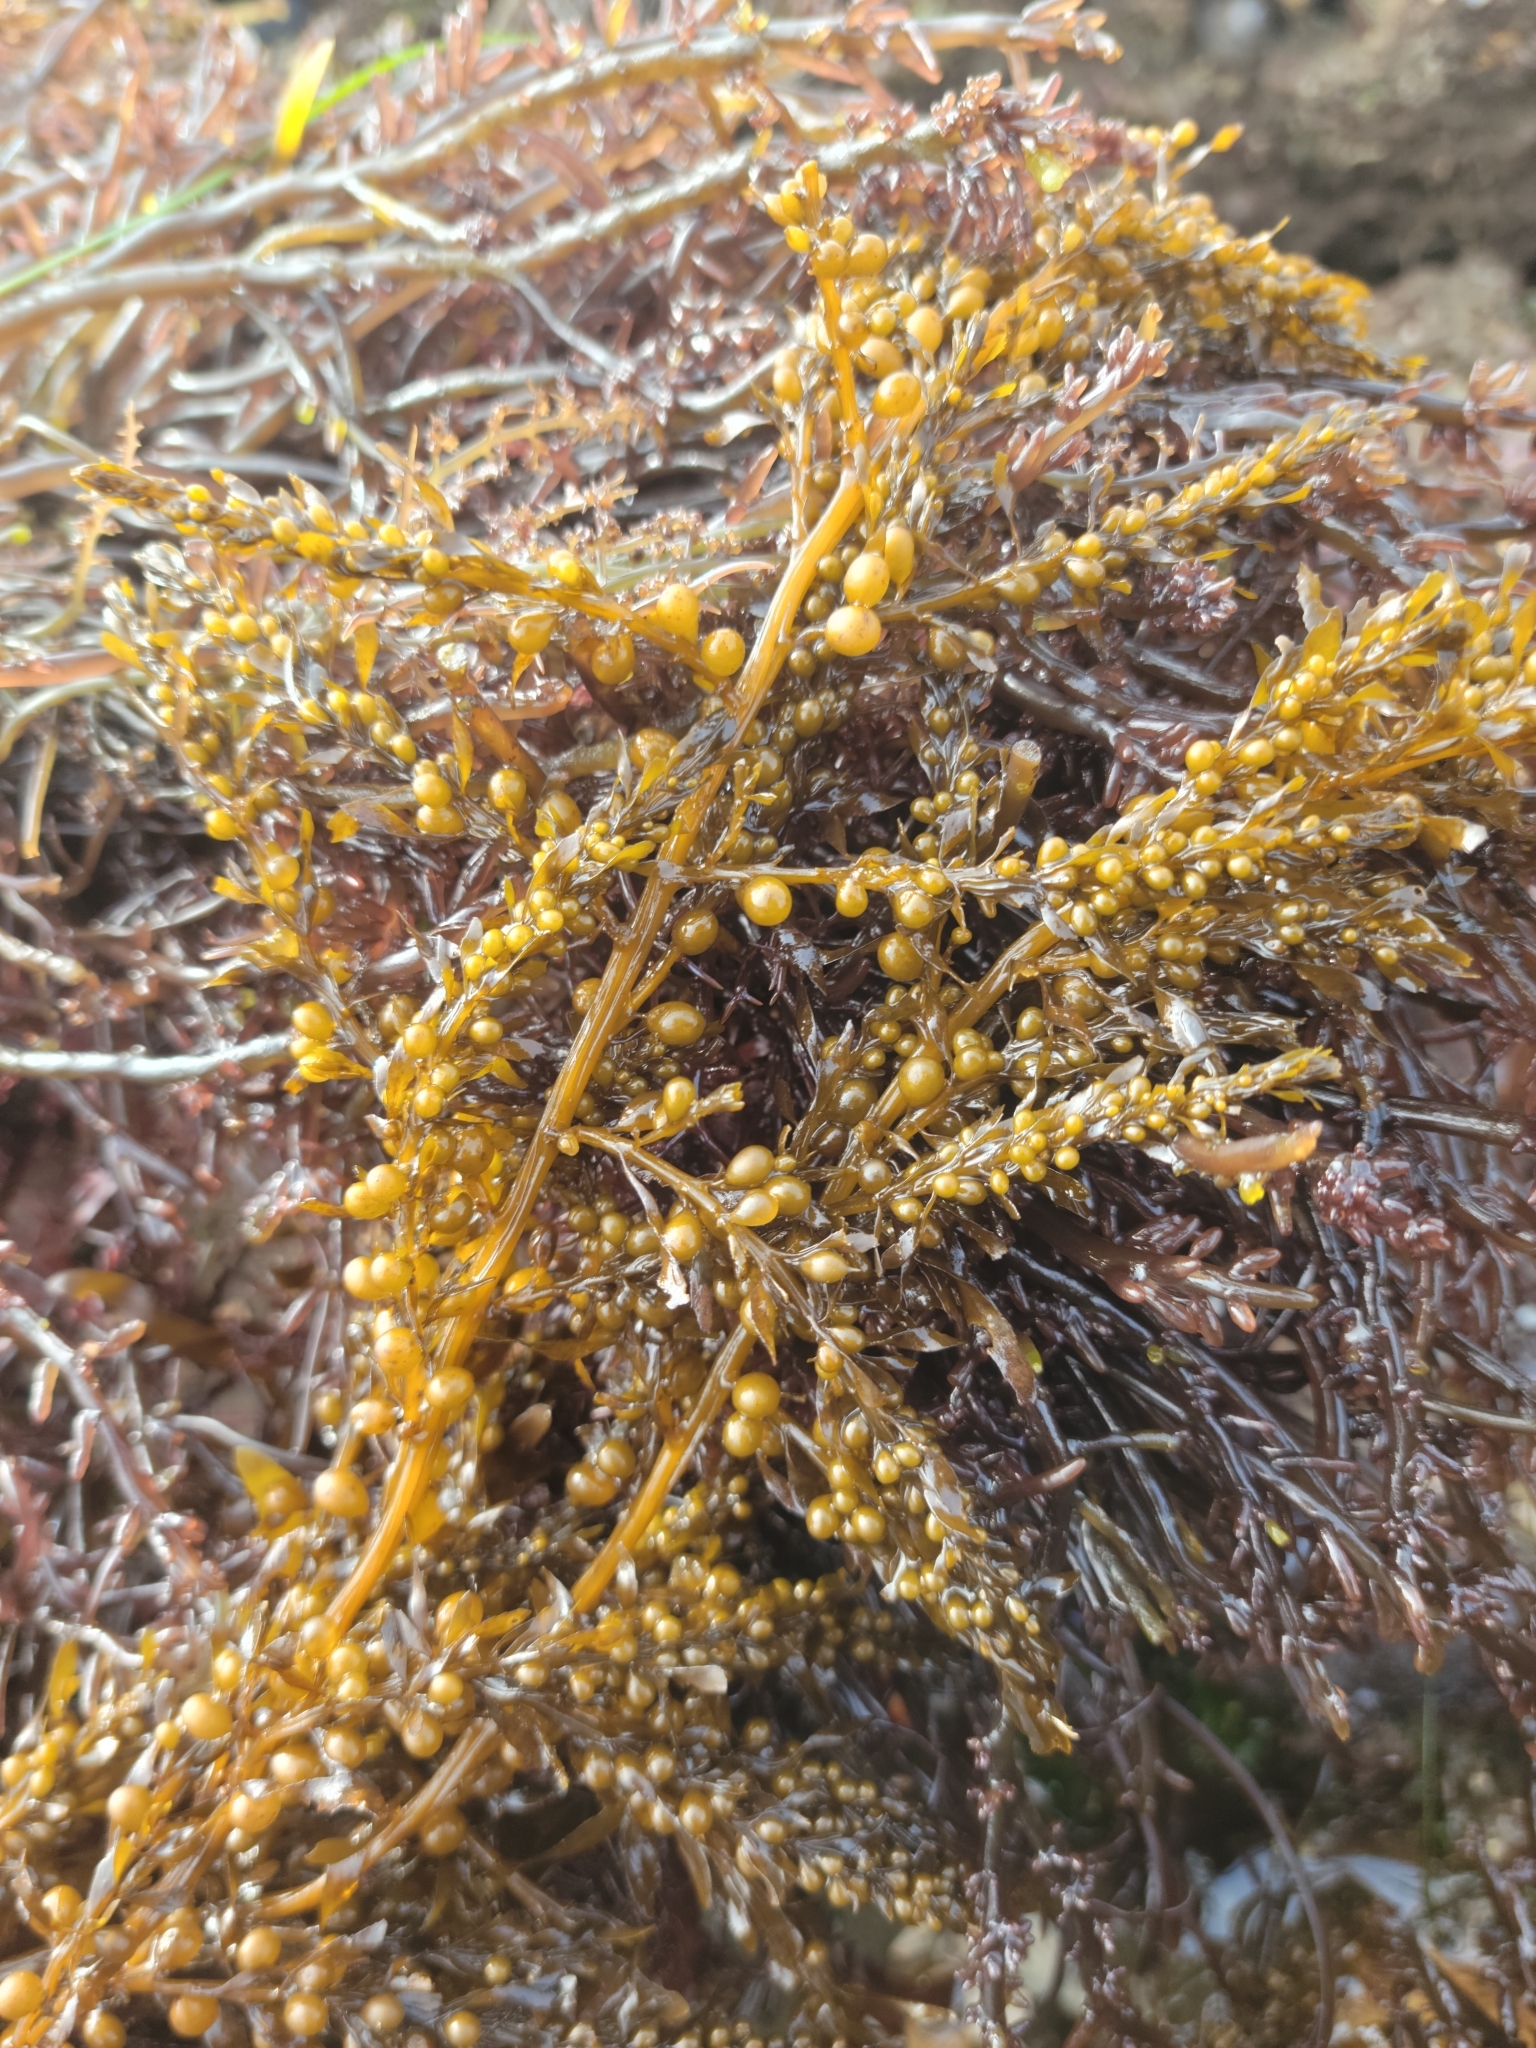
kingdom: Chromista
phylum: Ochrophyta
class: Phaeophyceae
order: Fucales
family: Sargassaceae
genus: Sargassum
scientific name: Sargassum muticum
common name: Japweed
